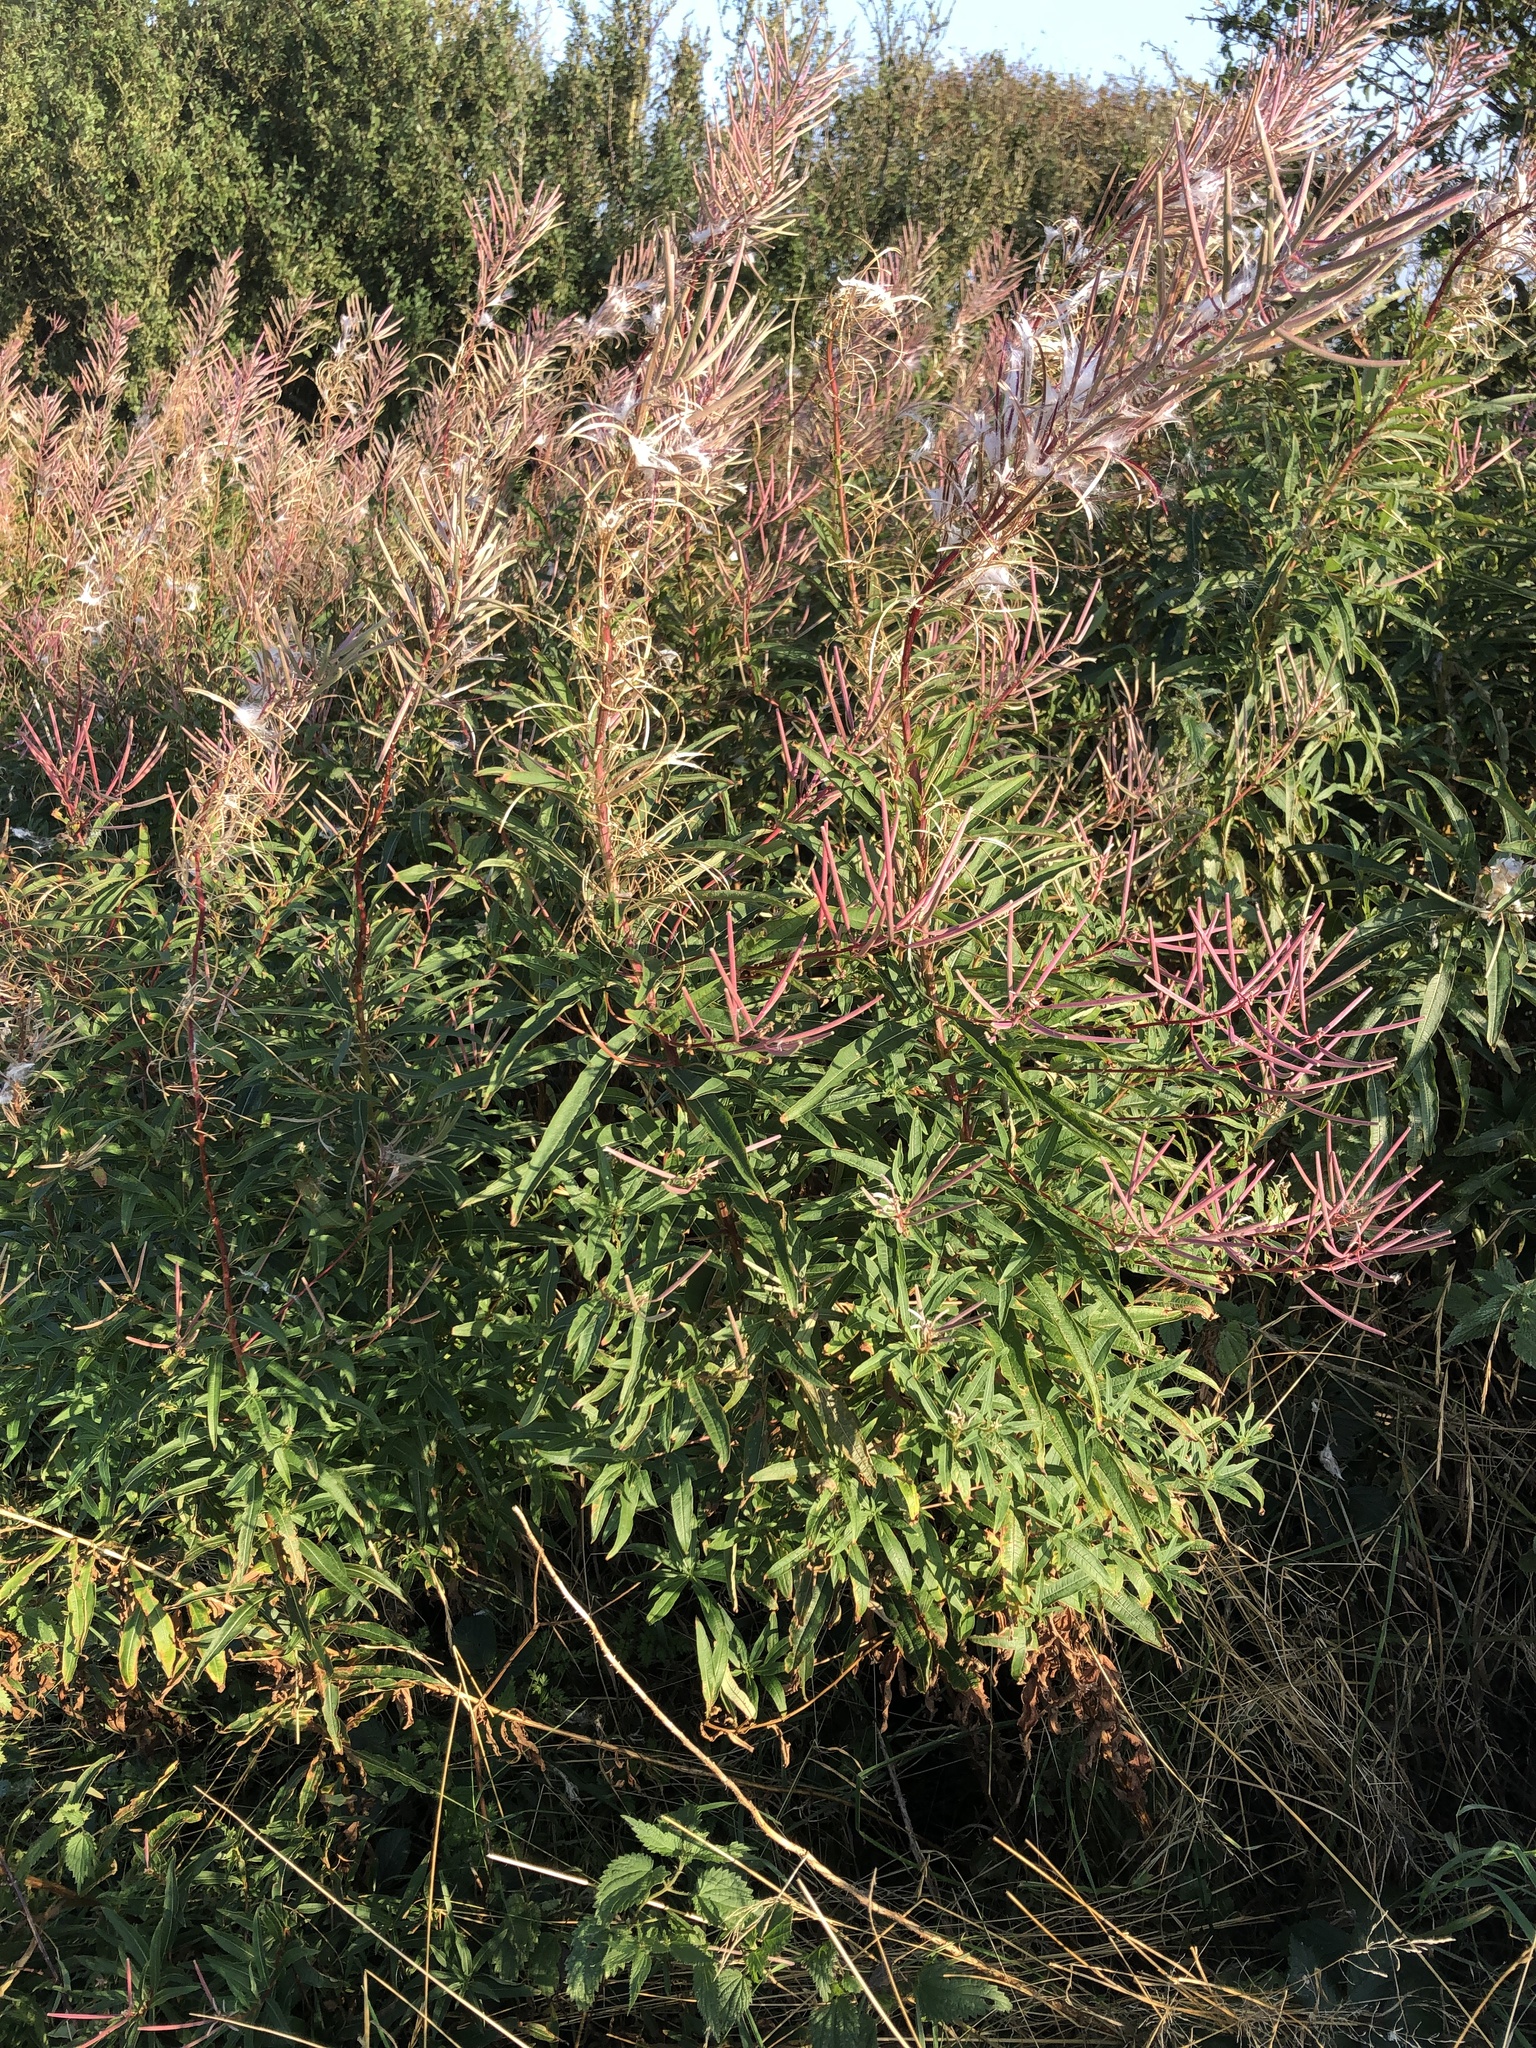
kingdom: Plantae
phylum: Tracheophyta
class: Magnoliopsida
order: Myrtales
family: Onagraceae
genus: Chamaenerion
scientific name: Chamaenerion angustifolium
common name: Fireweed
